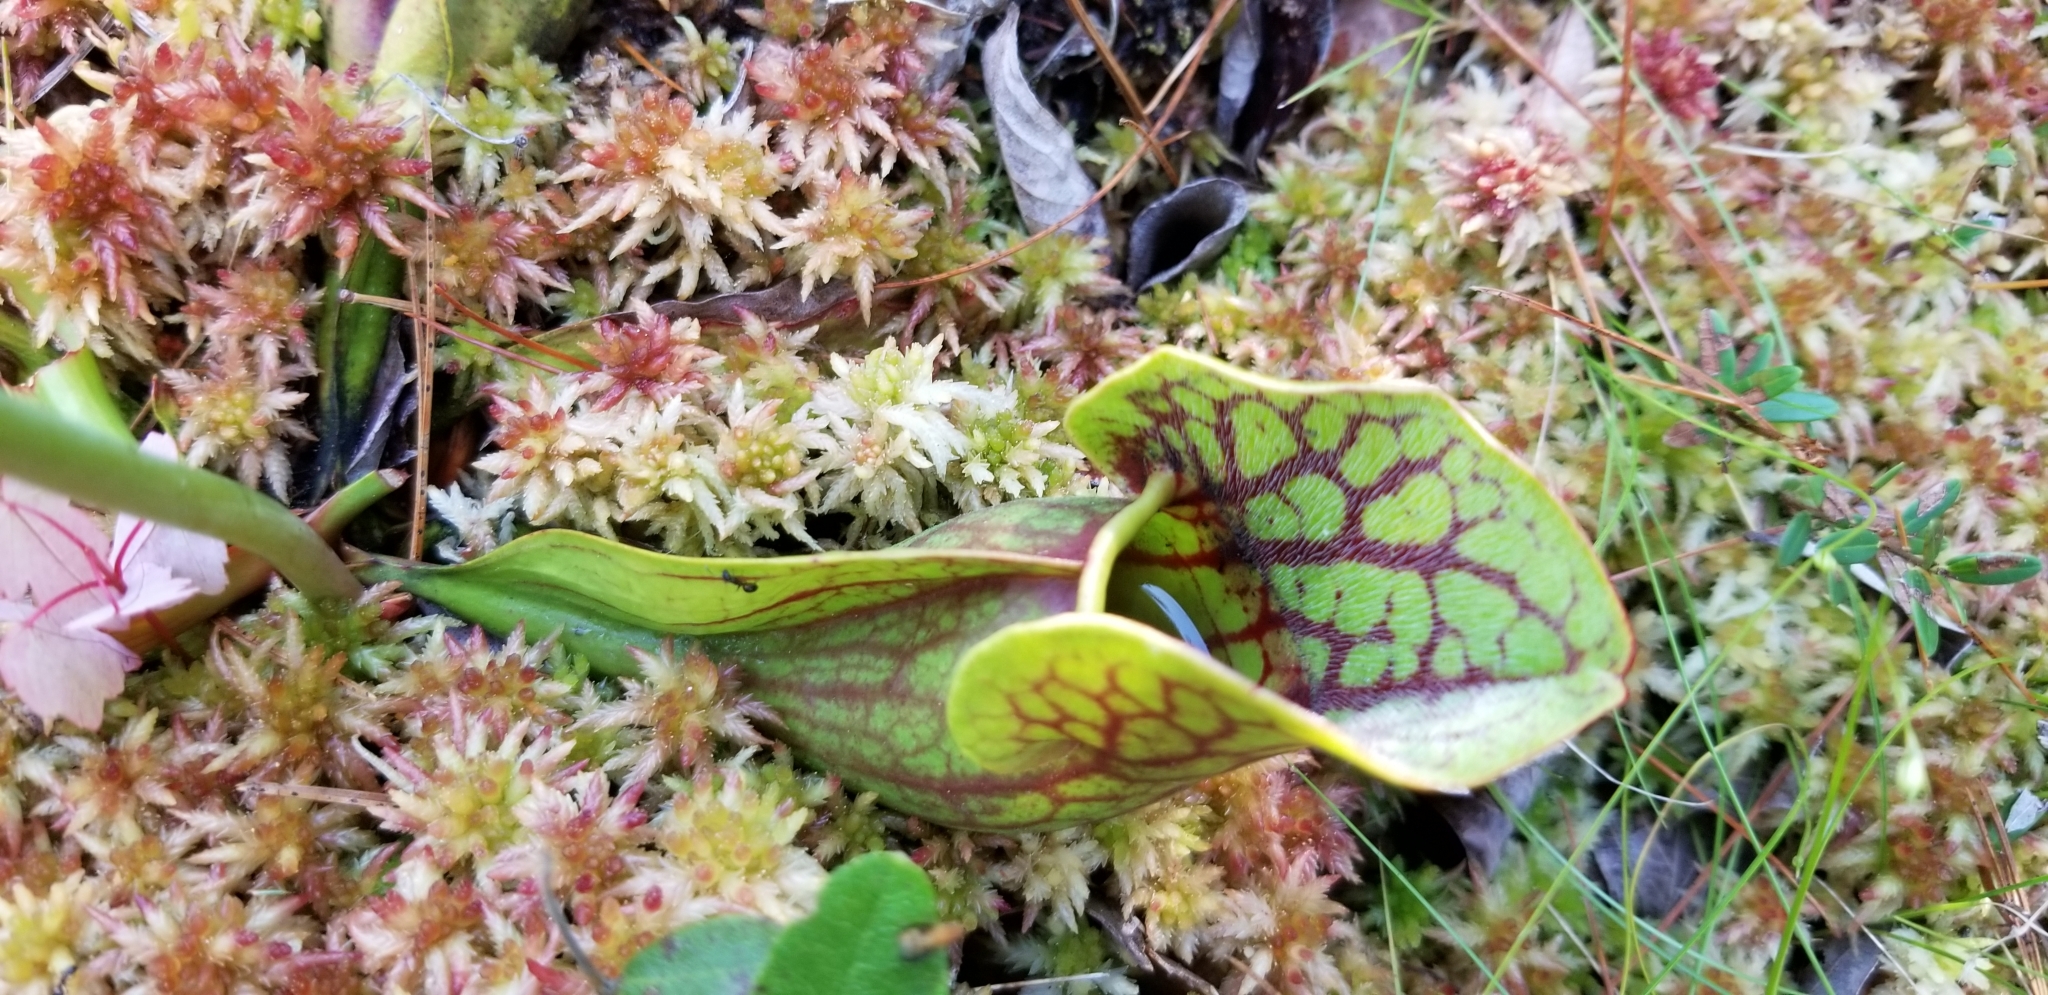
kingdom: Plantae
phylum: Tracheophyta
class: Magnoliopsida
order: Ericales
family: Sarraceniaceae
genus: Sarracenia
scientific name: Sarracenia purpurea
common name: Pitcherplant
